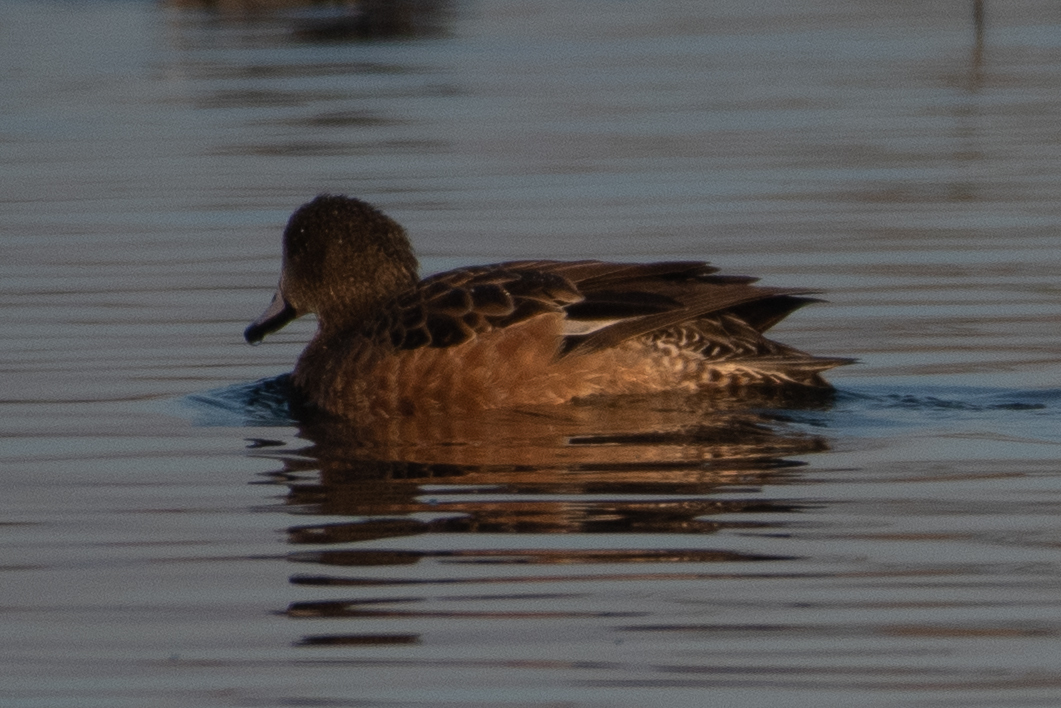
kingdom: Animalia
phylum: Chordata
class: Aves
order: Anseriformes
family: Anatidae
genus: Mareca
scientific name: Mareca americana
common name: American wigeon
